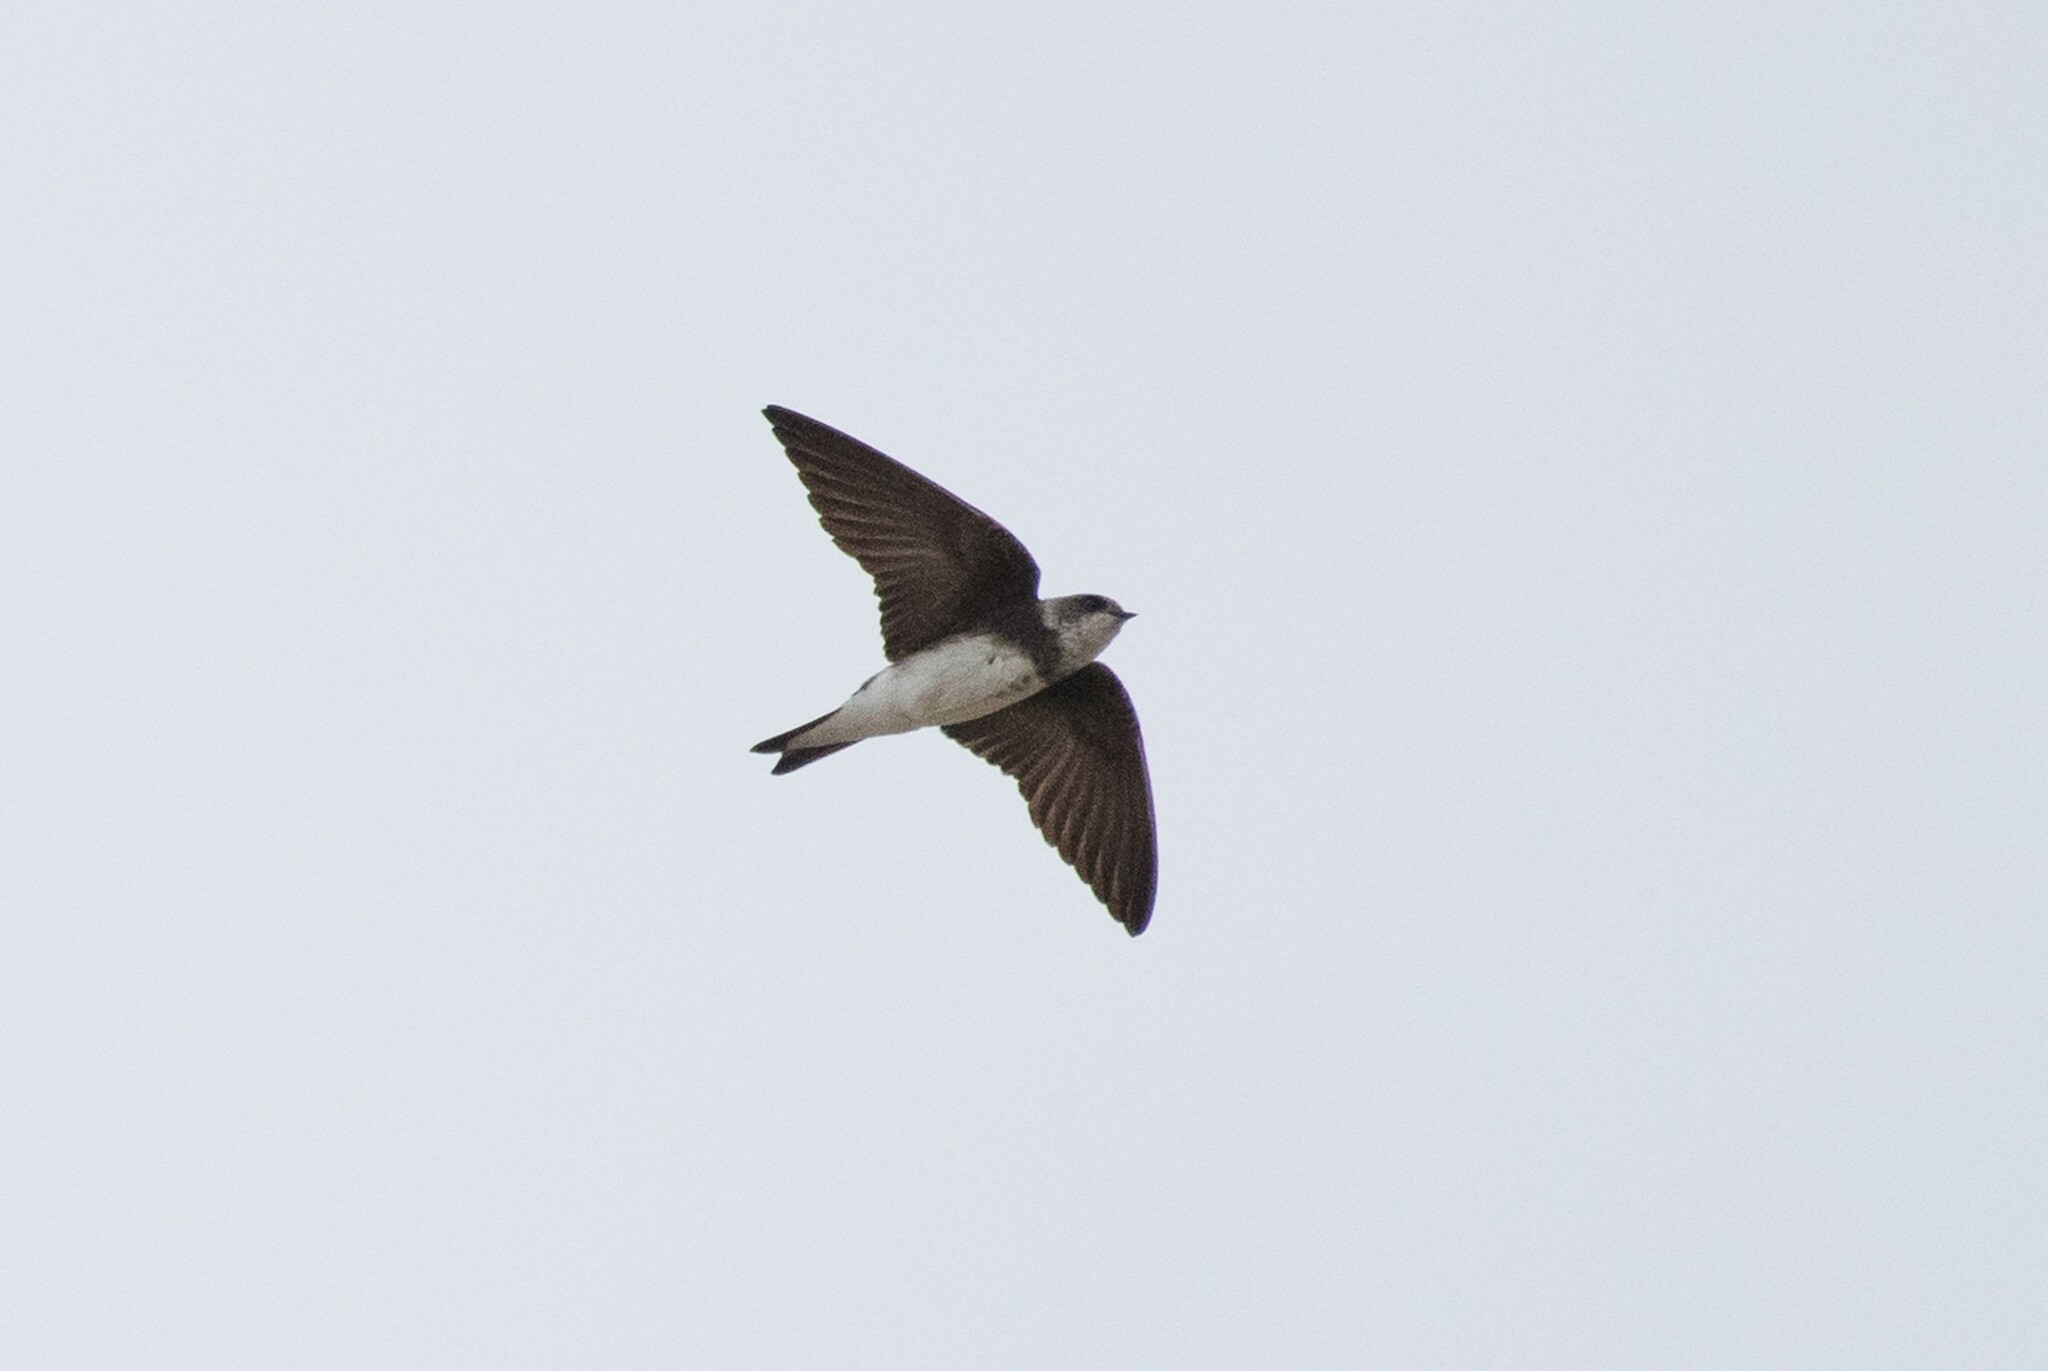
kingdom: Animalia
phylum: Chordata
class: Aves
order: Passeriformes
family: Hirundinidae
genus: Riparia
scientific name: Riparia riparia
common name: Sand martin
